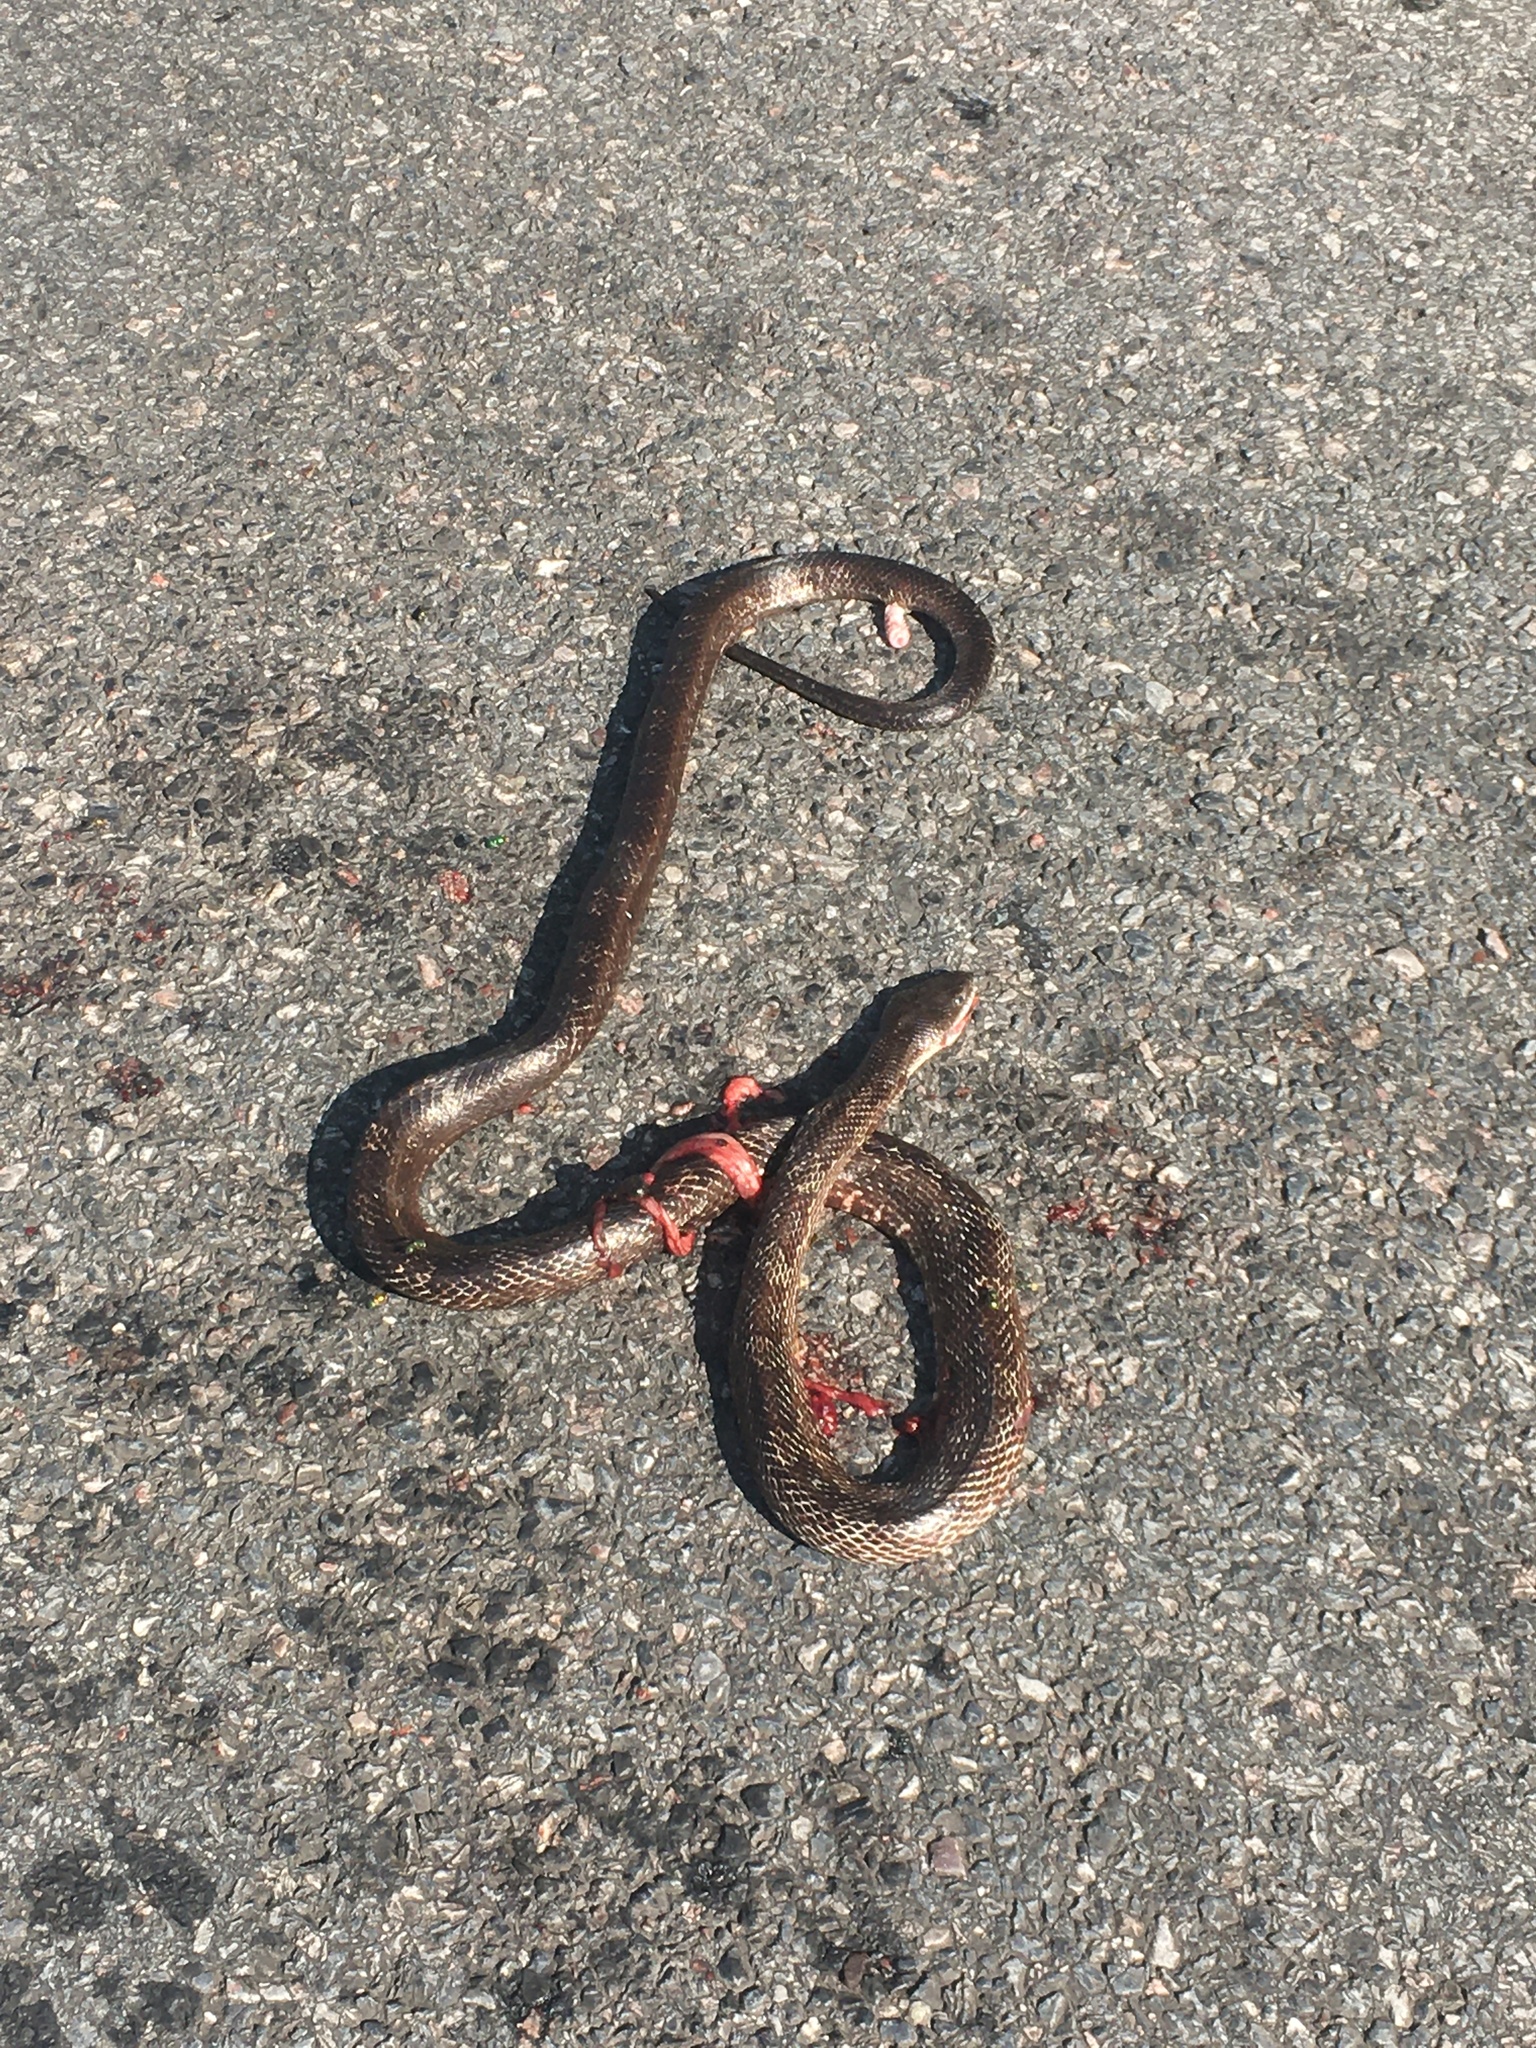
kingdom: Animalia
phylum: Chordata
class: Squamata
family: Colubridae
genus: Pantherophis
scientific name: Pantherophis alleghaniensis
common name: Eastern rat snake
